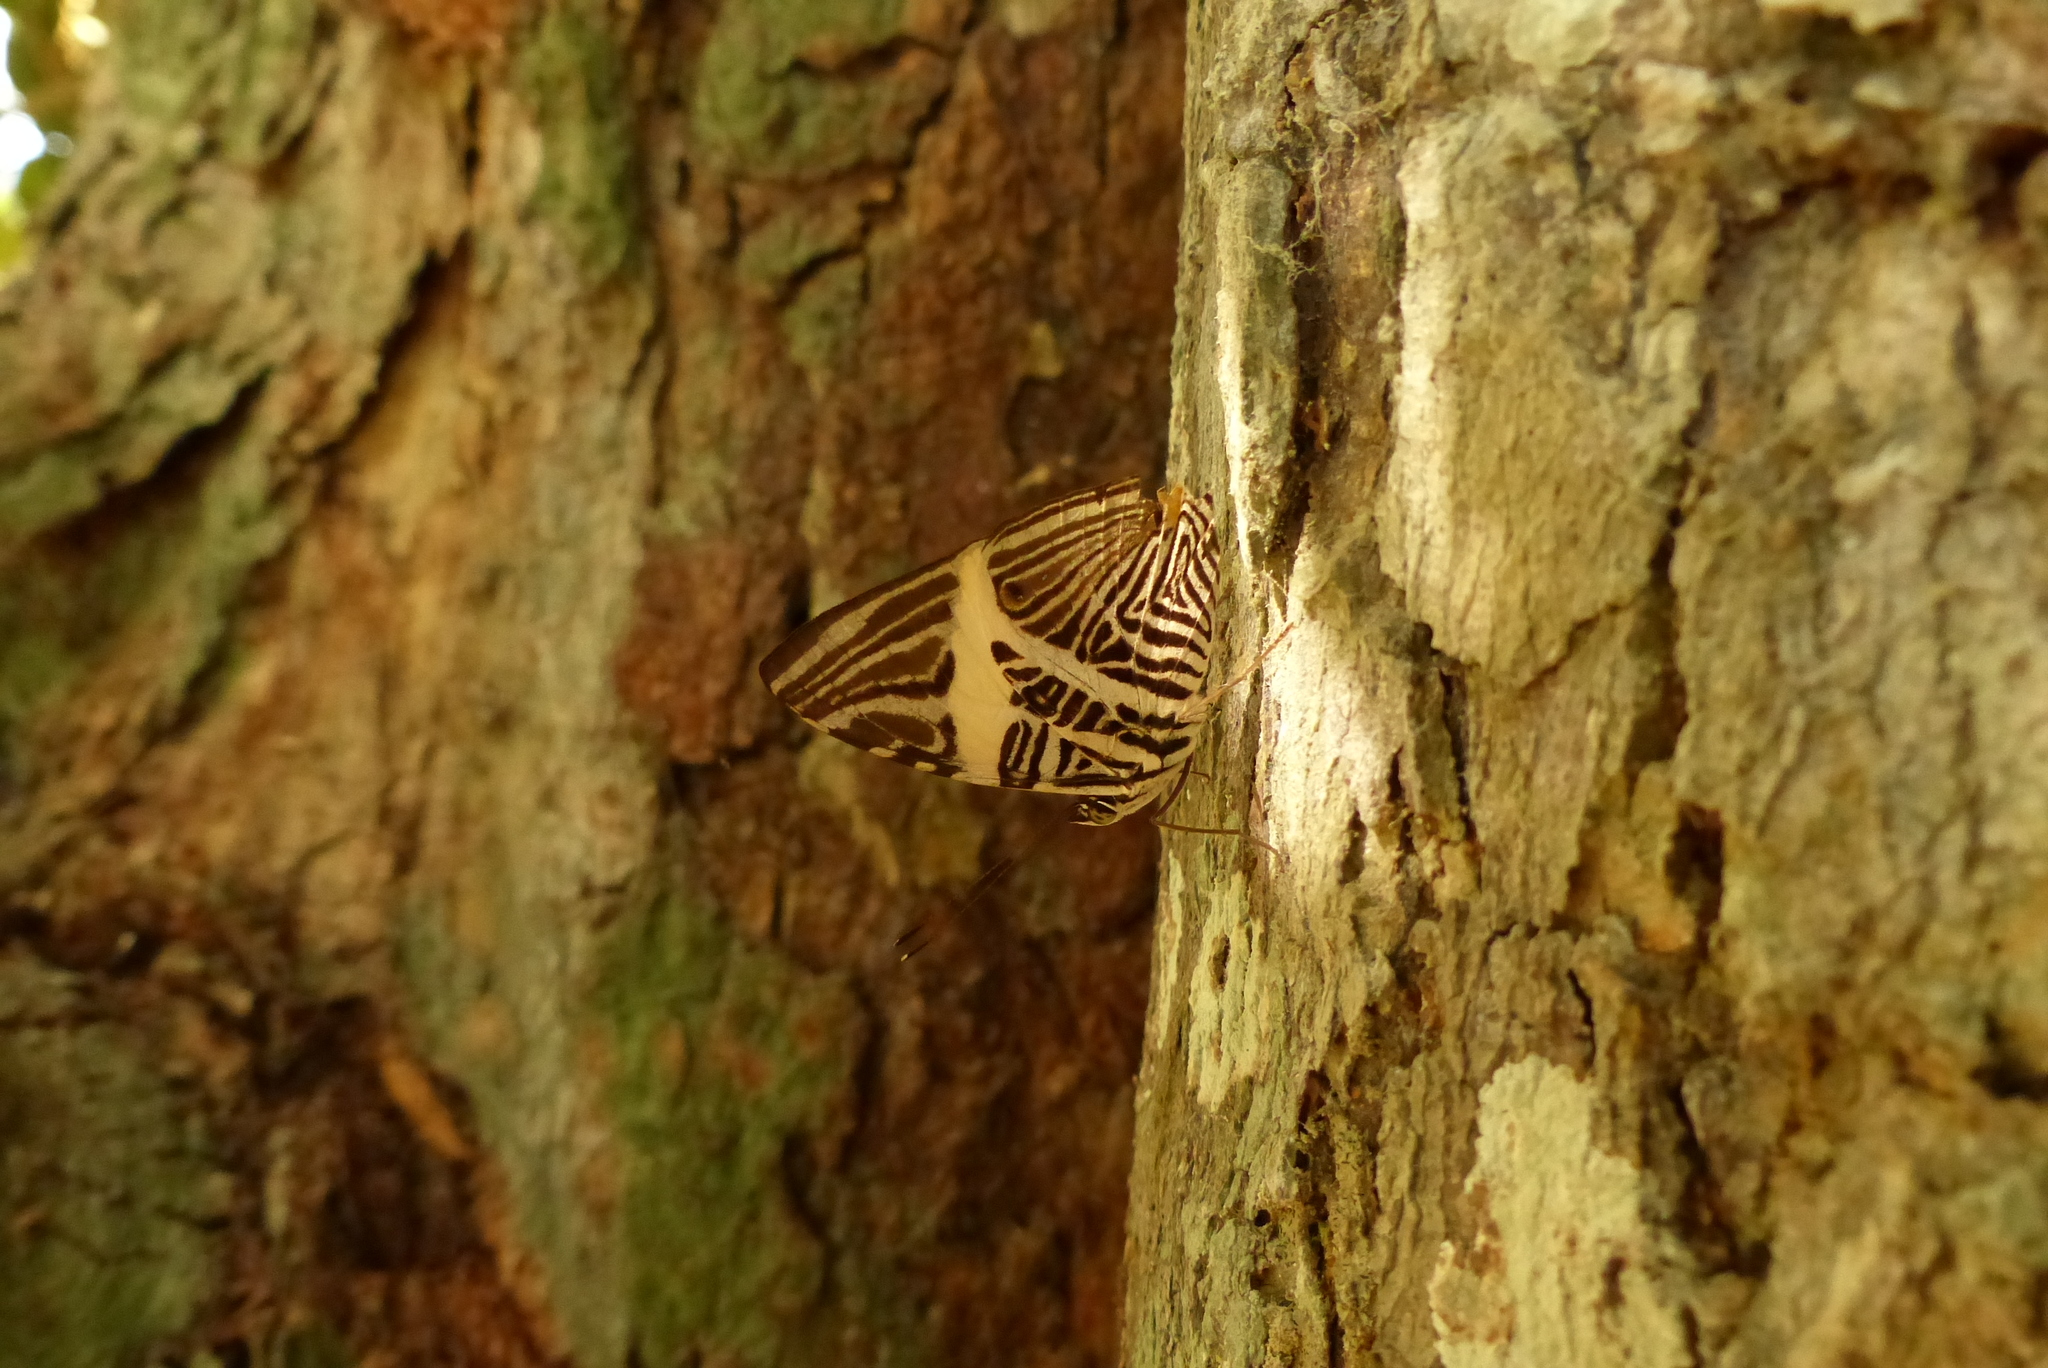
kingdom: Animalia
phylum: Arthropoda
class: Insecta
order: Lepidoptera
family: Nymphalidae
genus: Colobura
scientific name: Colobura dirce
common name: Dirce beauty
